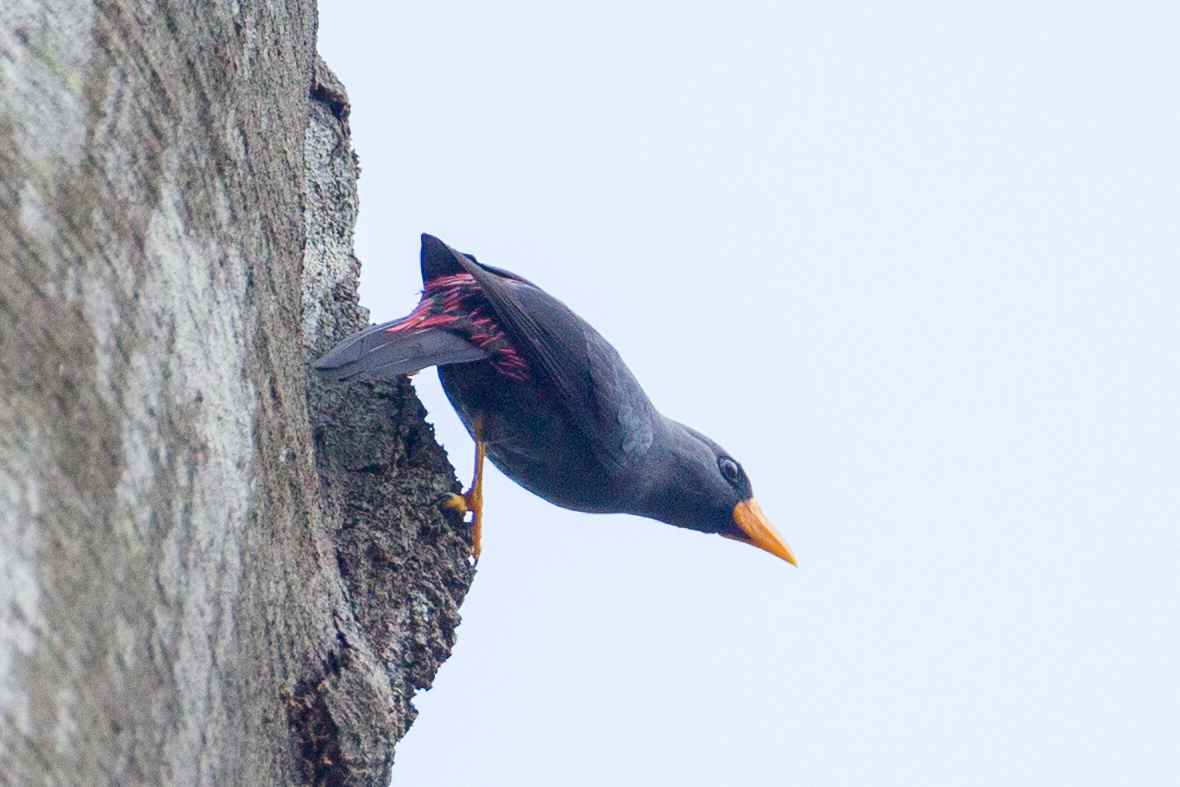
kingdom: Animalia
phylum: Chordata
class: Aves
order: Passeriformes
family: Sturnidae
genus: Scissirostrum
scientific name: Scissirostrum dubium
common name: Grosbeak starling
